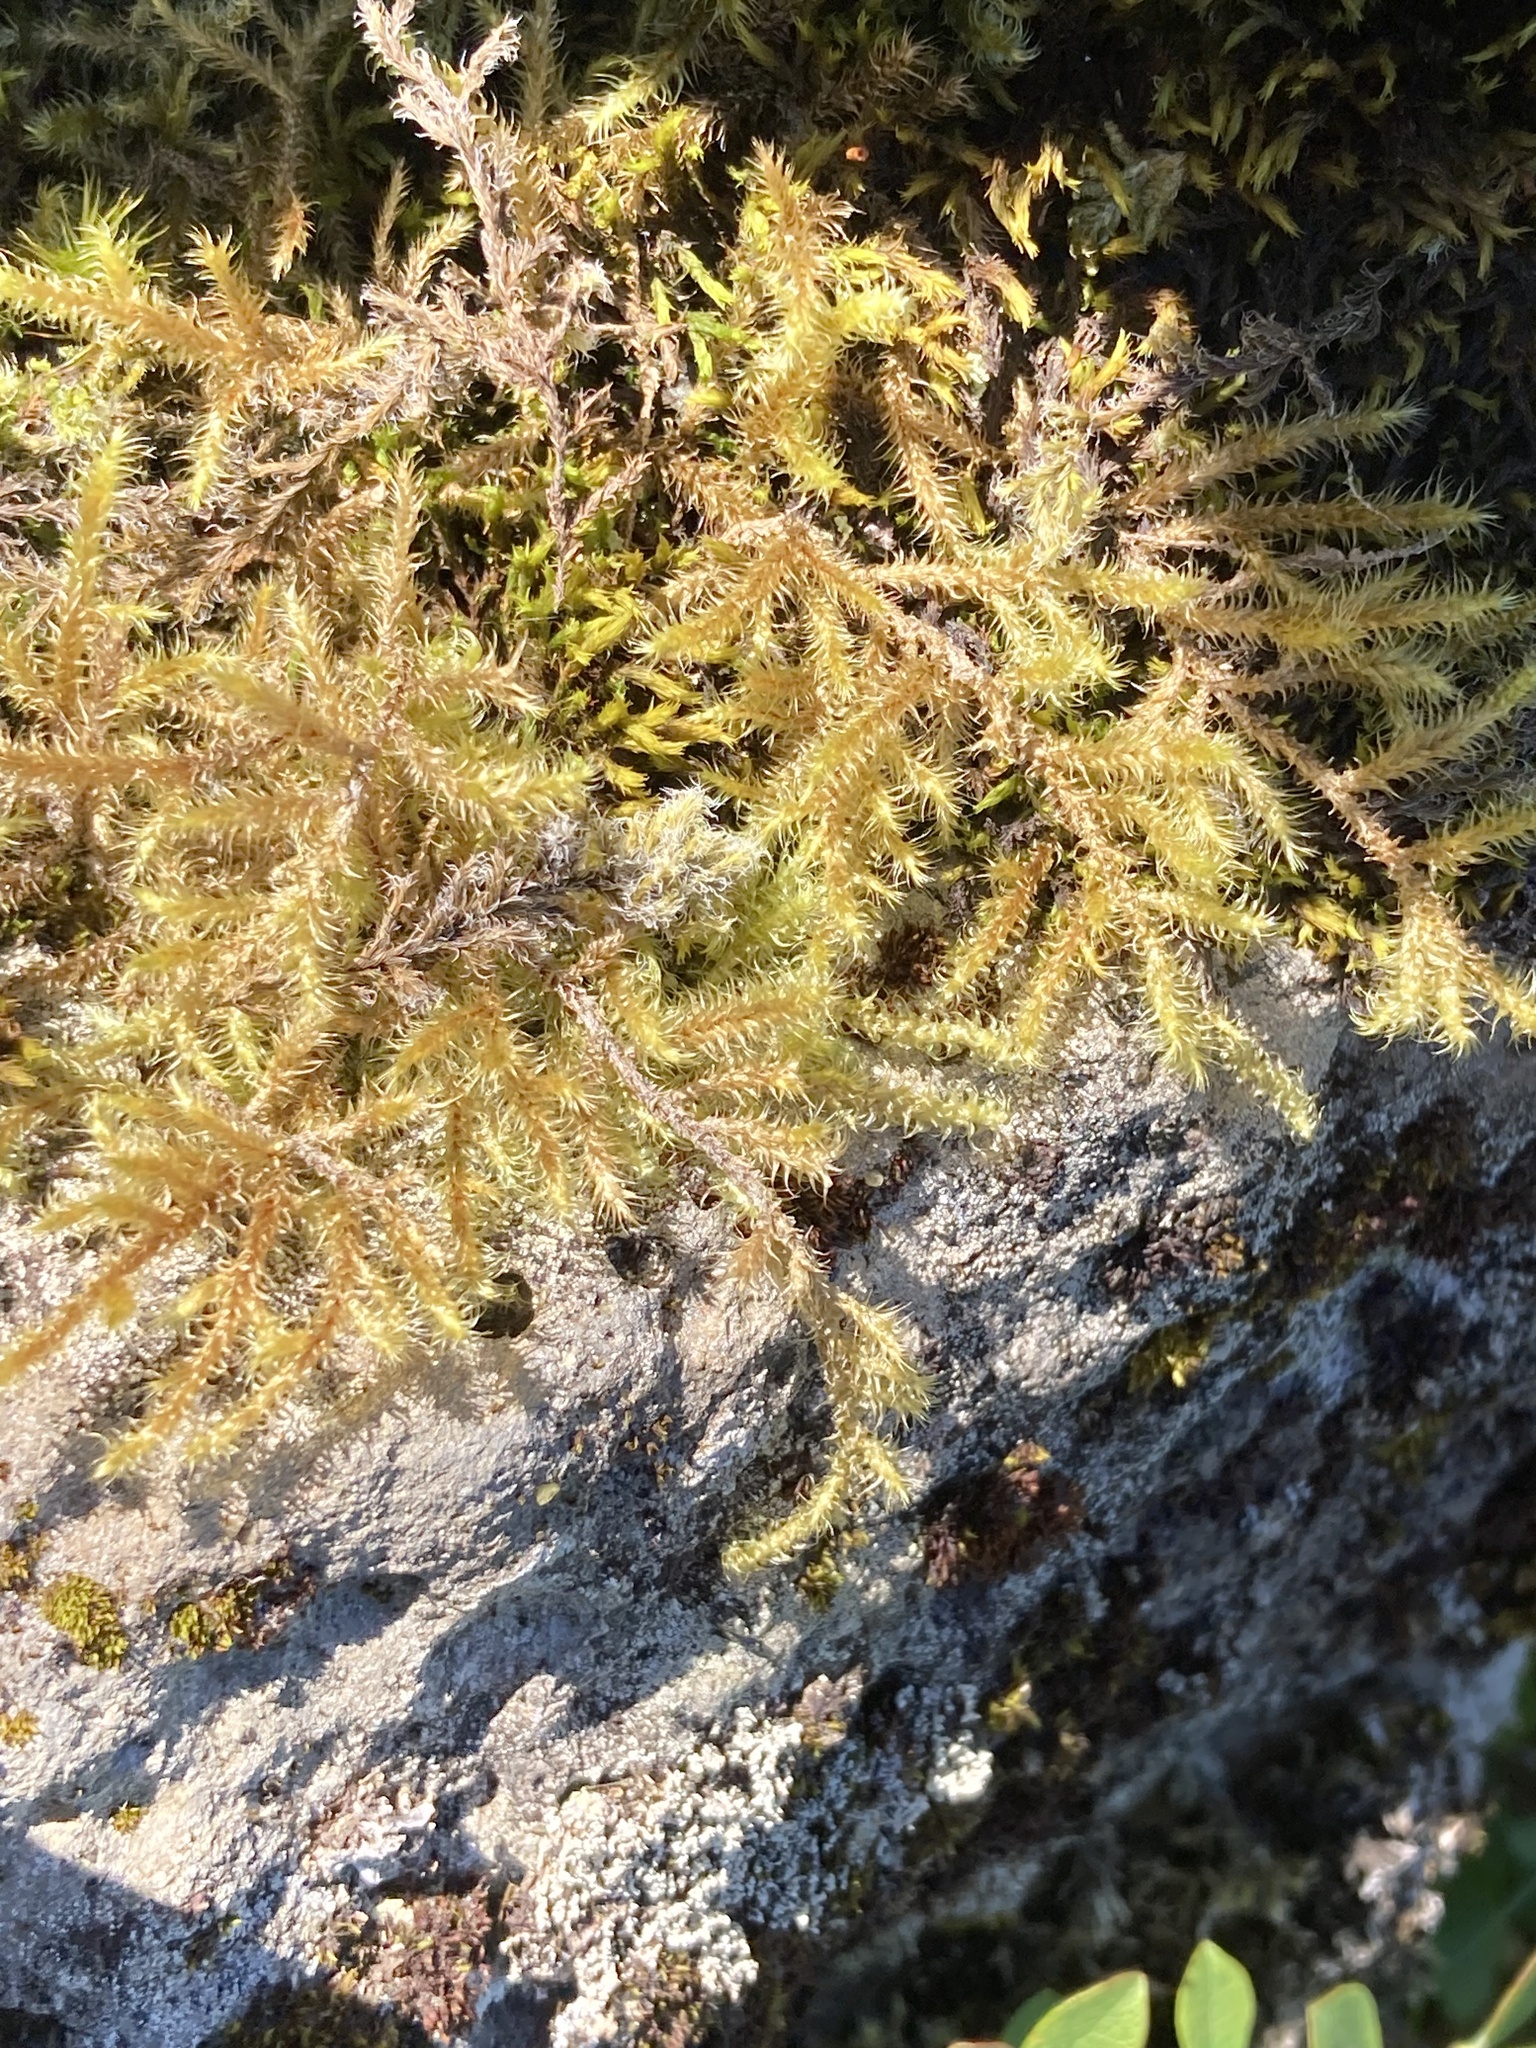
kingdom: Plantae
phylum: Bryophyta
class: Bryopsida
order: Hypnales
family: Hylocomiaceae
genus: Rhytidiadelphus
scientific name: Rhytidiadelphus loreus
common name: Lanky moss
